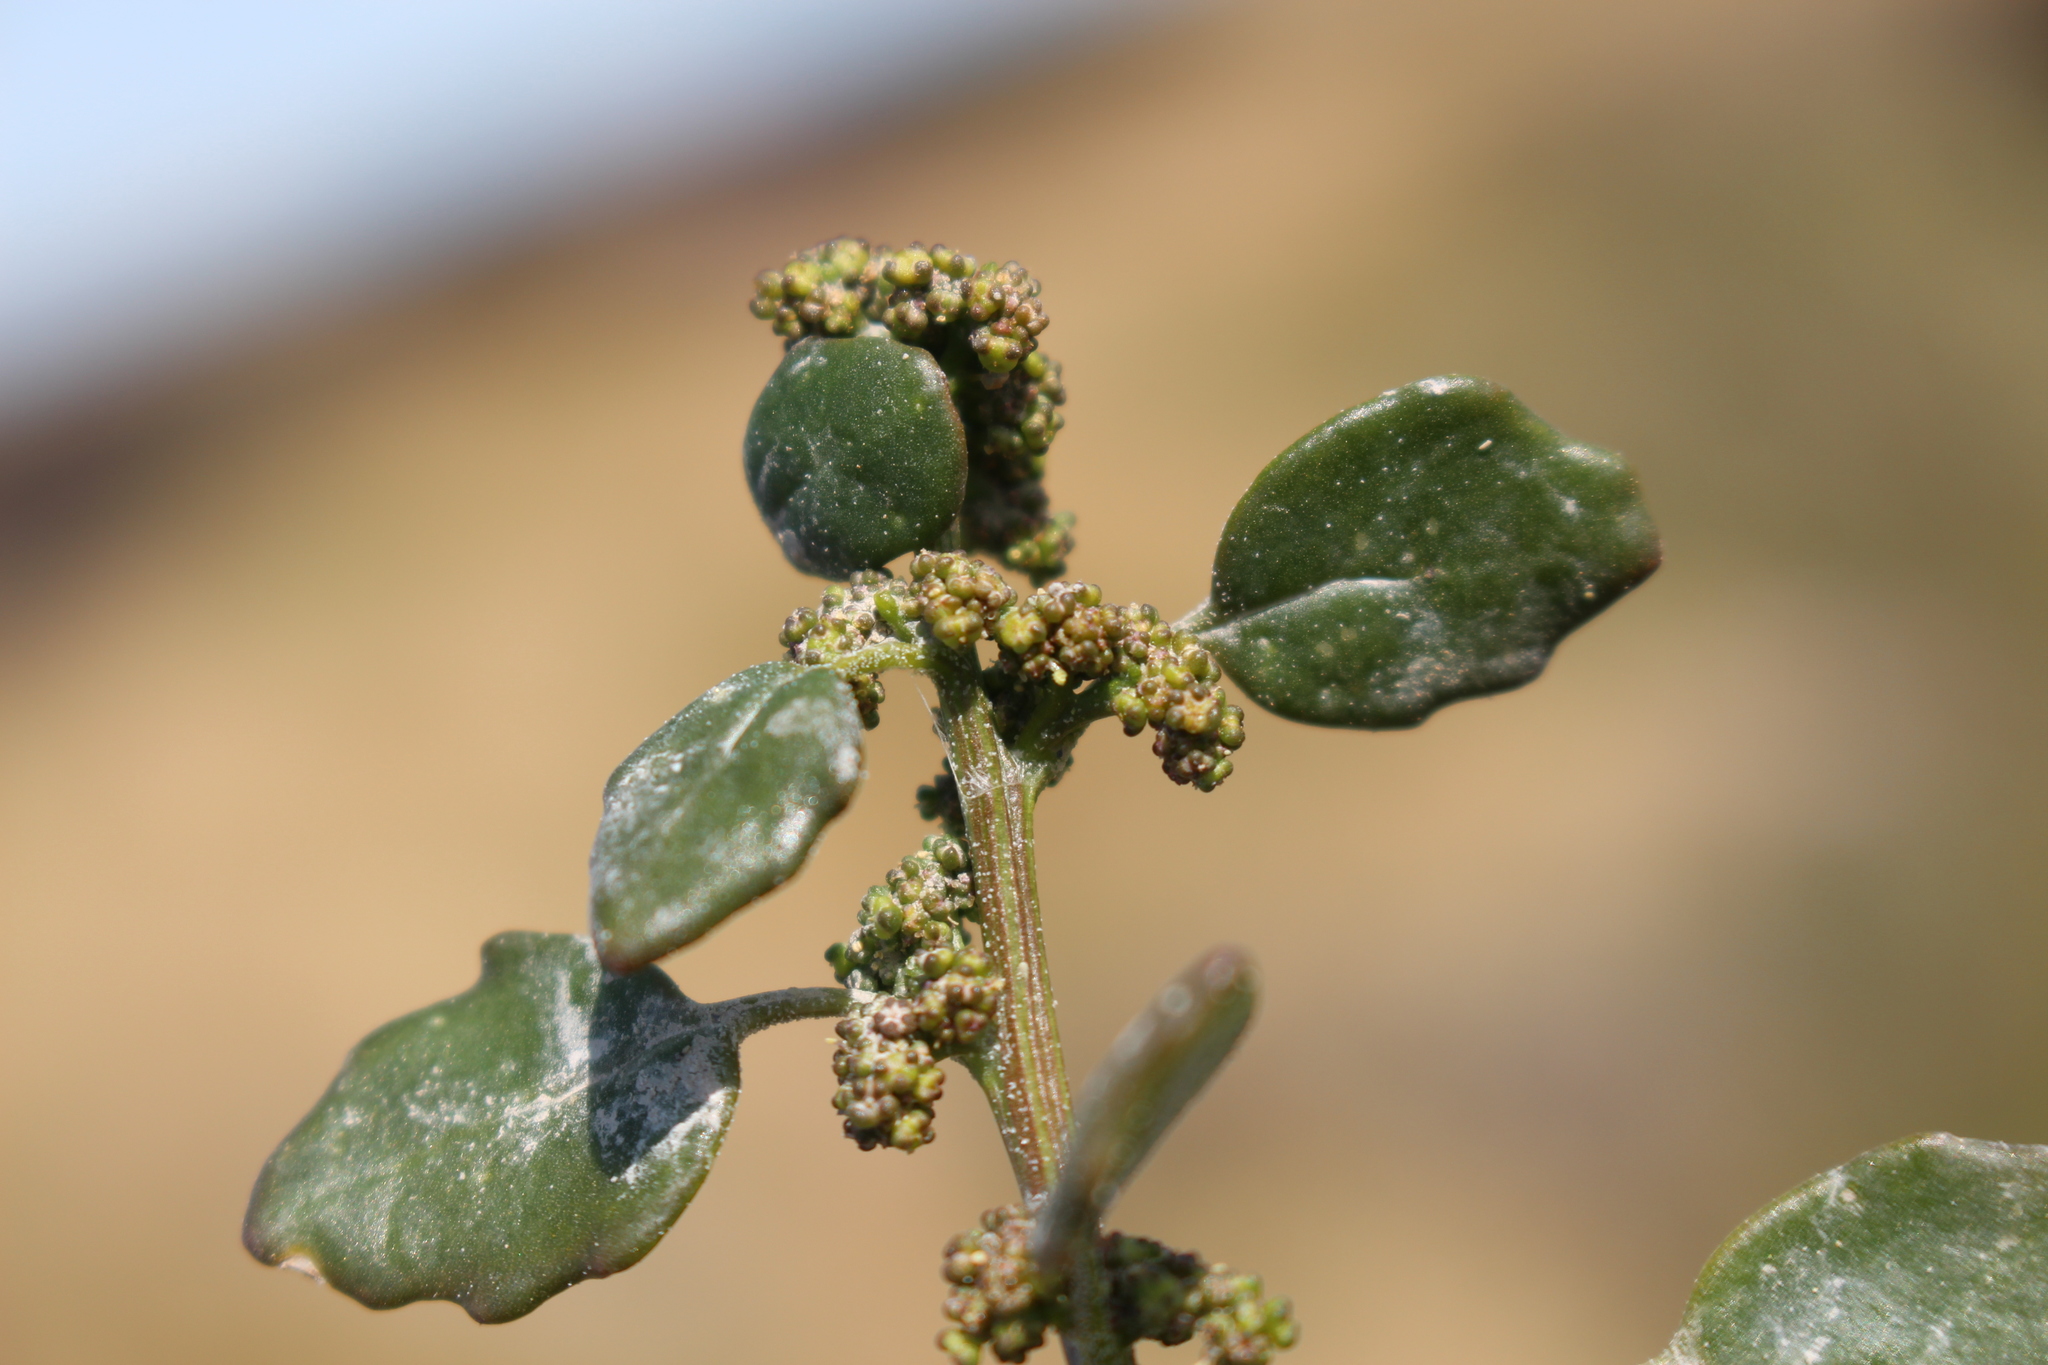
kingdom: Plantae
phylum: Tracheophyta
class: Magnoliopsida
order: Caryophyllales
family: Amaranthaceae
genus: Oxybasis
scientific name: Oxybasis ambigua
